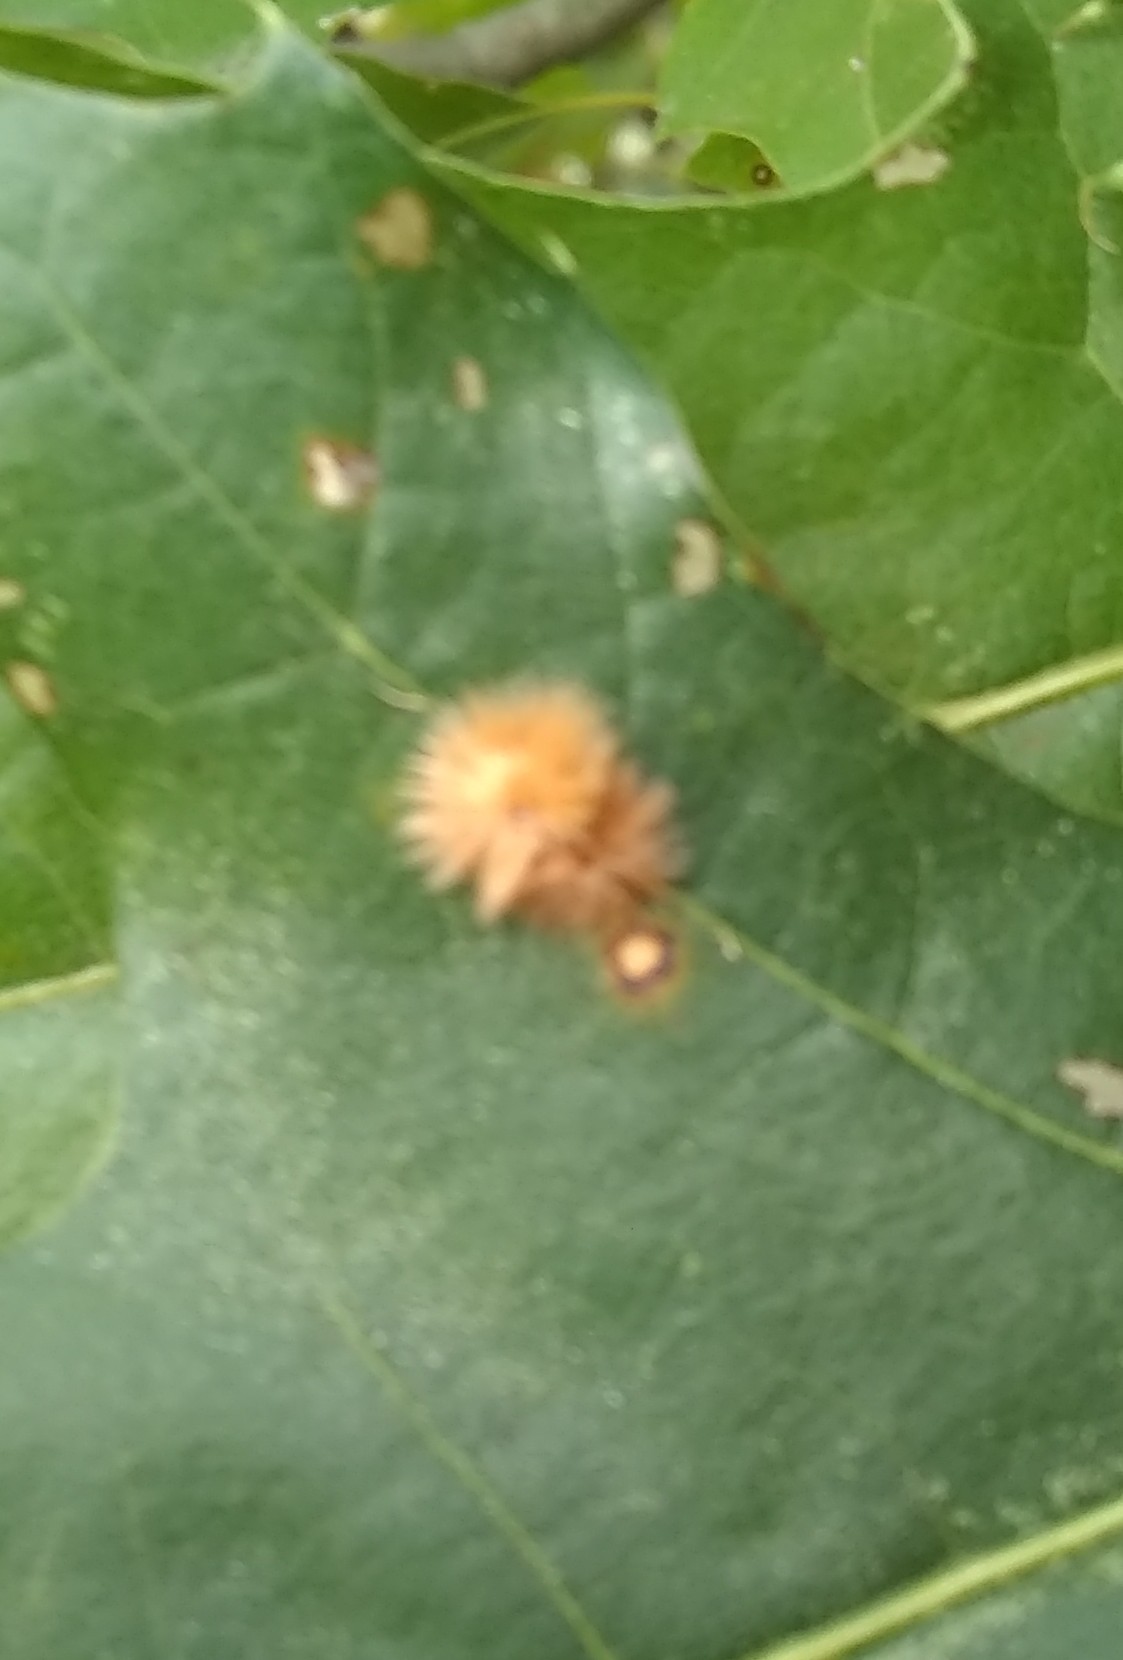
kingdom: Animalia
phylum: Arthropoda
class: Insecta
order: Hymenoptera
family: Cynipidae
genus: Callirhytis
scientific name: Callirhytis
